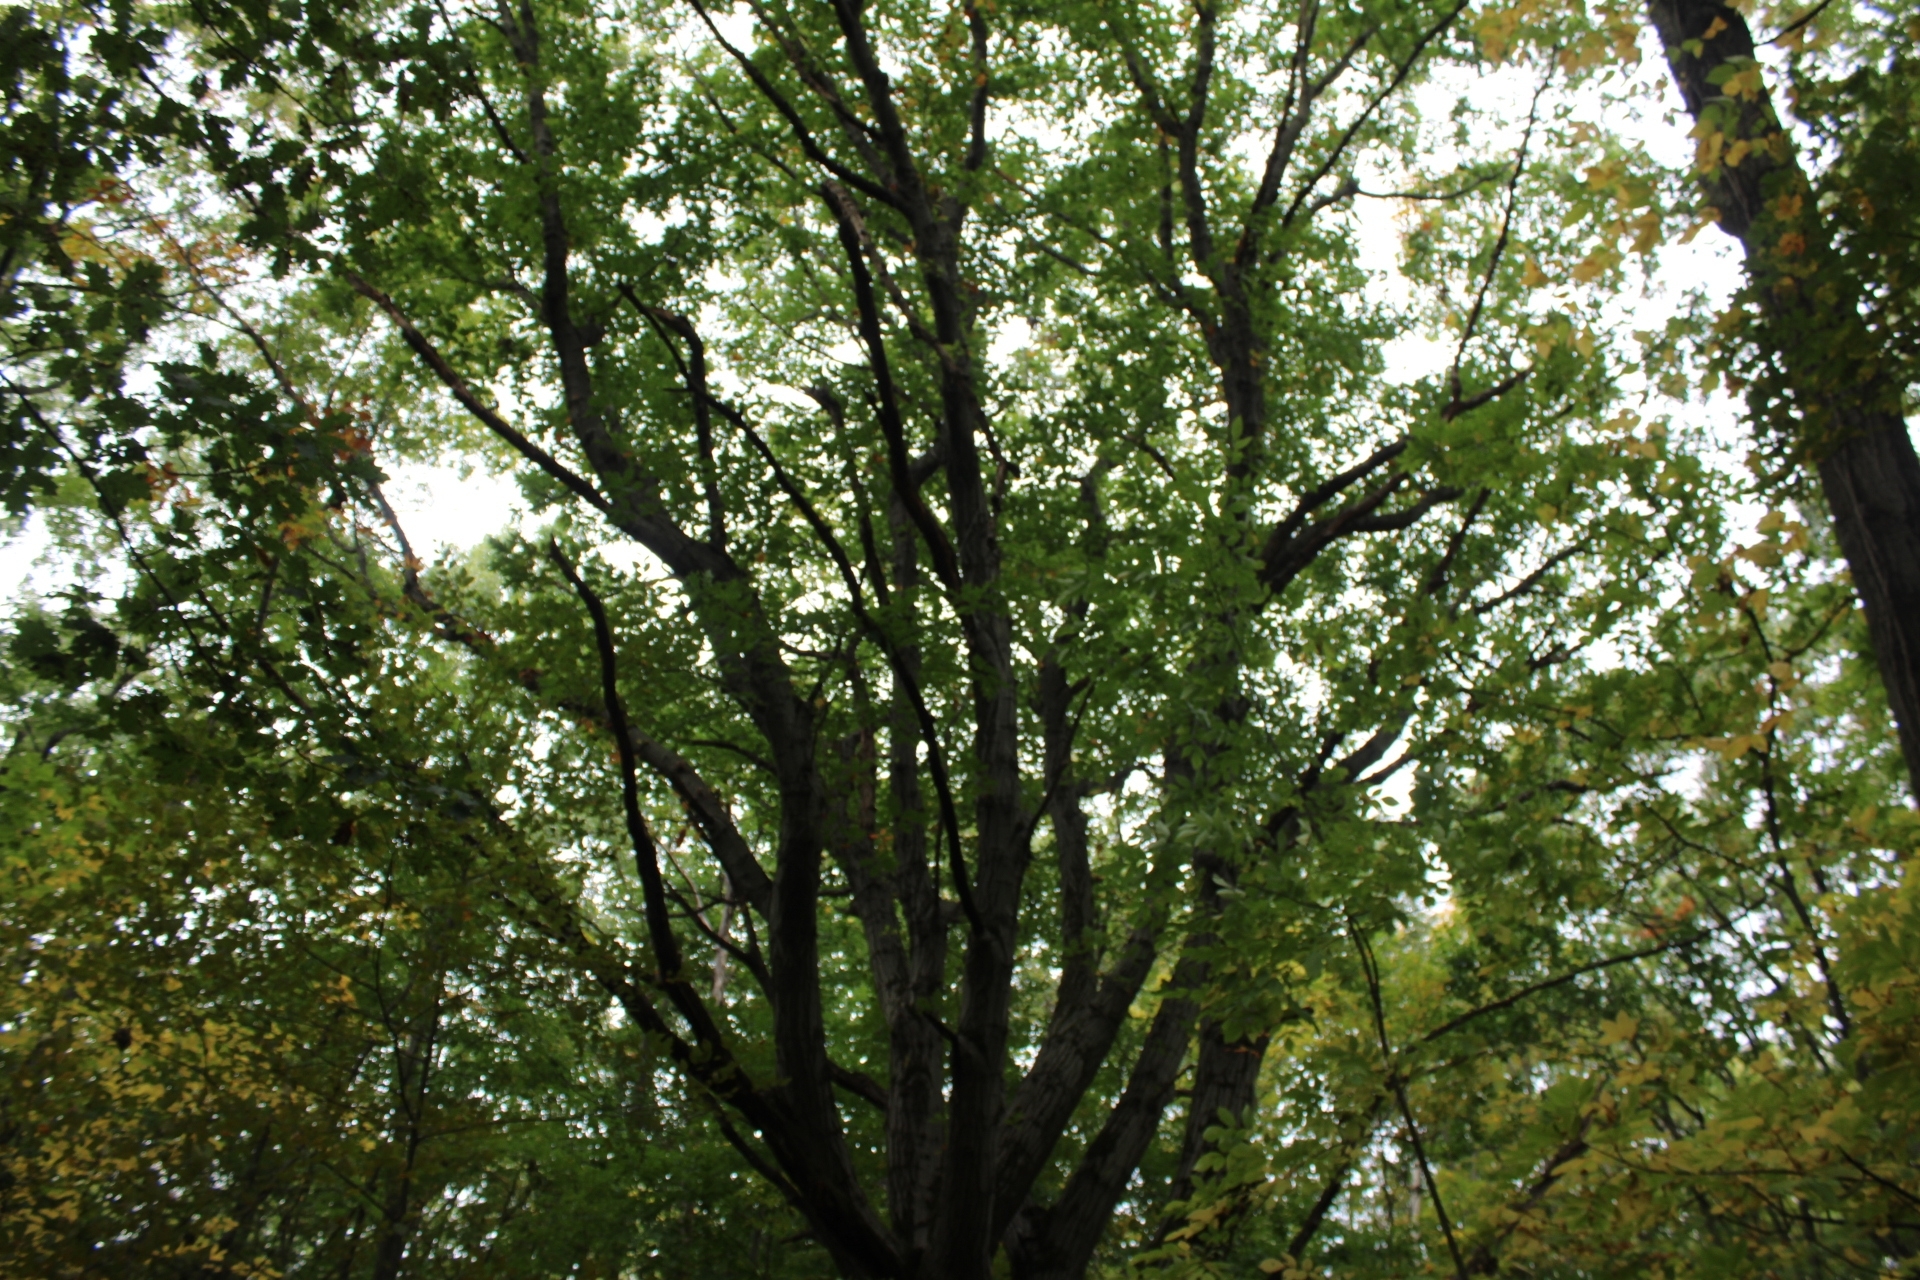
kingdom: Plantae
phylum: Tracheophyta
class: Magnoliopsida
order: Fagales
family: Fagaceae
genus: Quercus
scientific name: Quercus rubra
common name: Red oak
